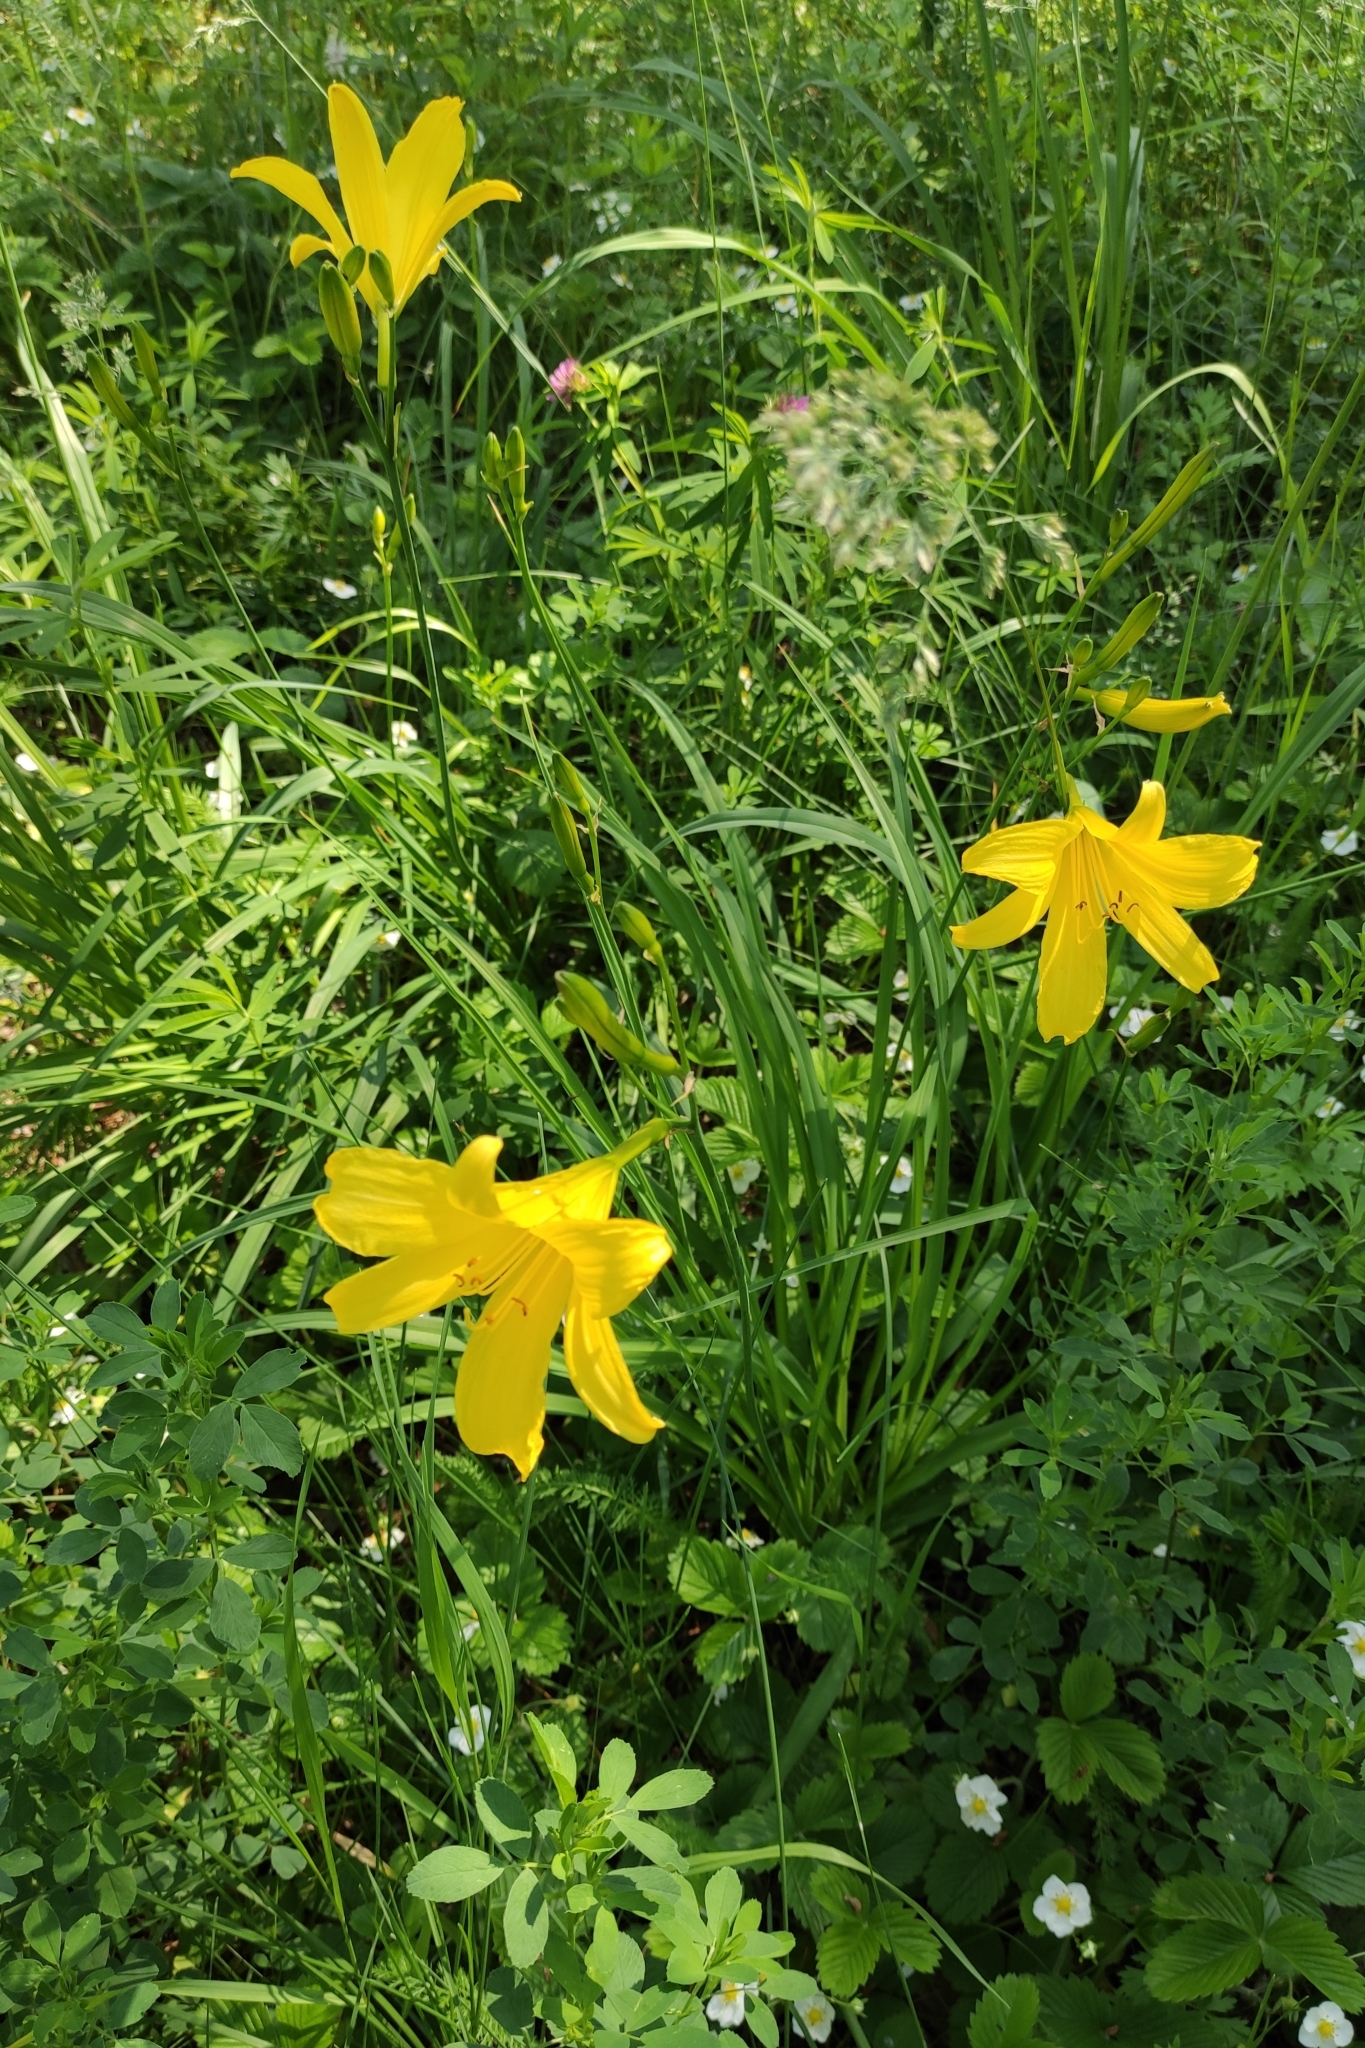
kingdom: Plantae
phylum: Tracheophyta
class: Liliopsida
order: Asparagales
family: Asphodelaceae
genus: Hemerocallis
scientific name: Hemerocallis minor
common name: Small daylily
